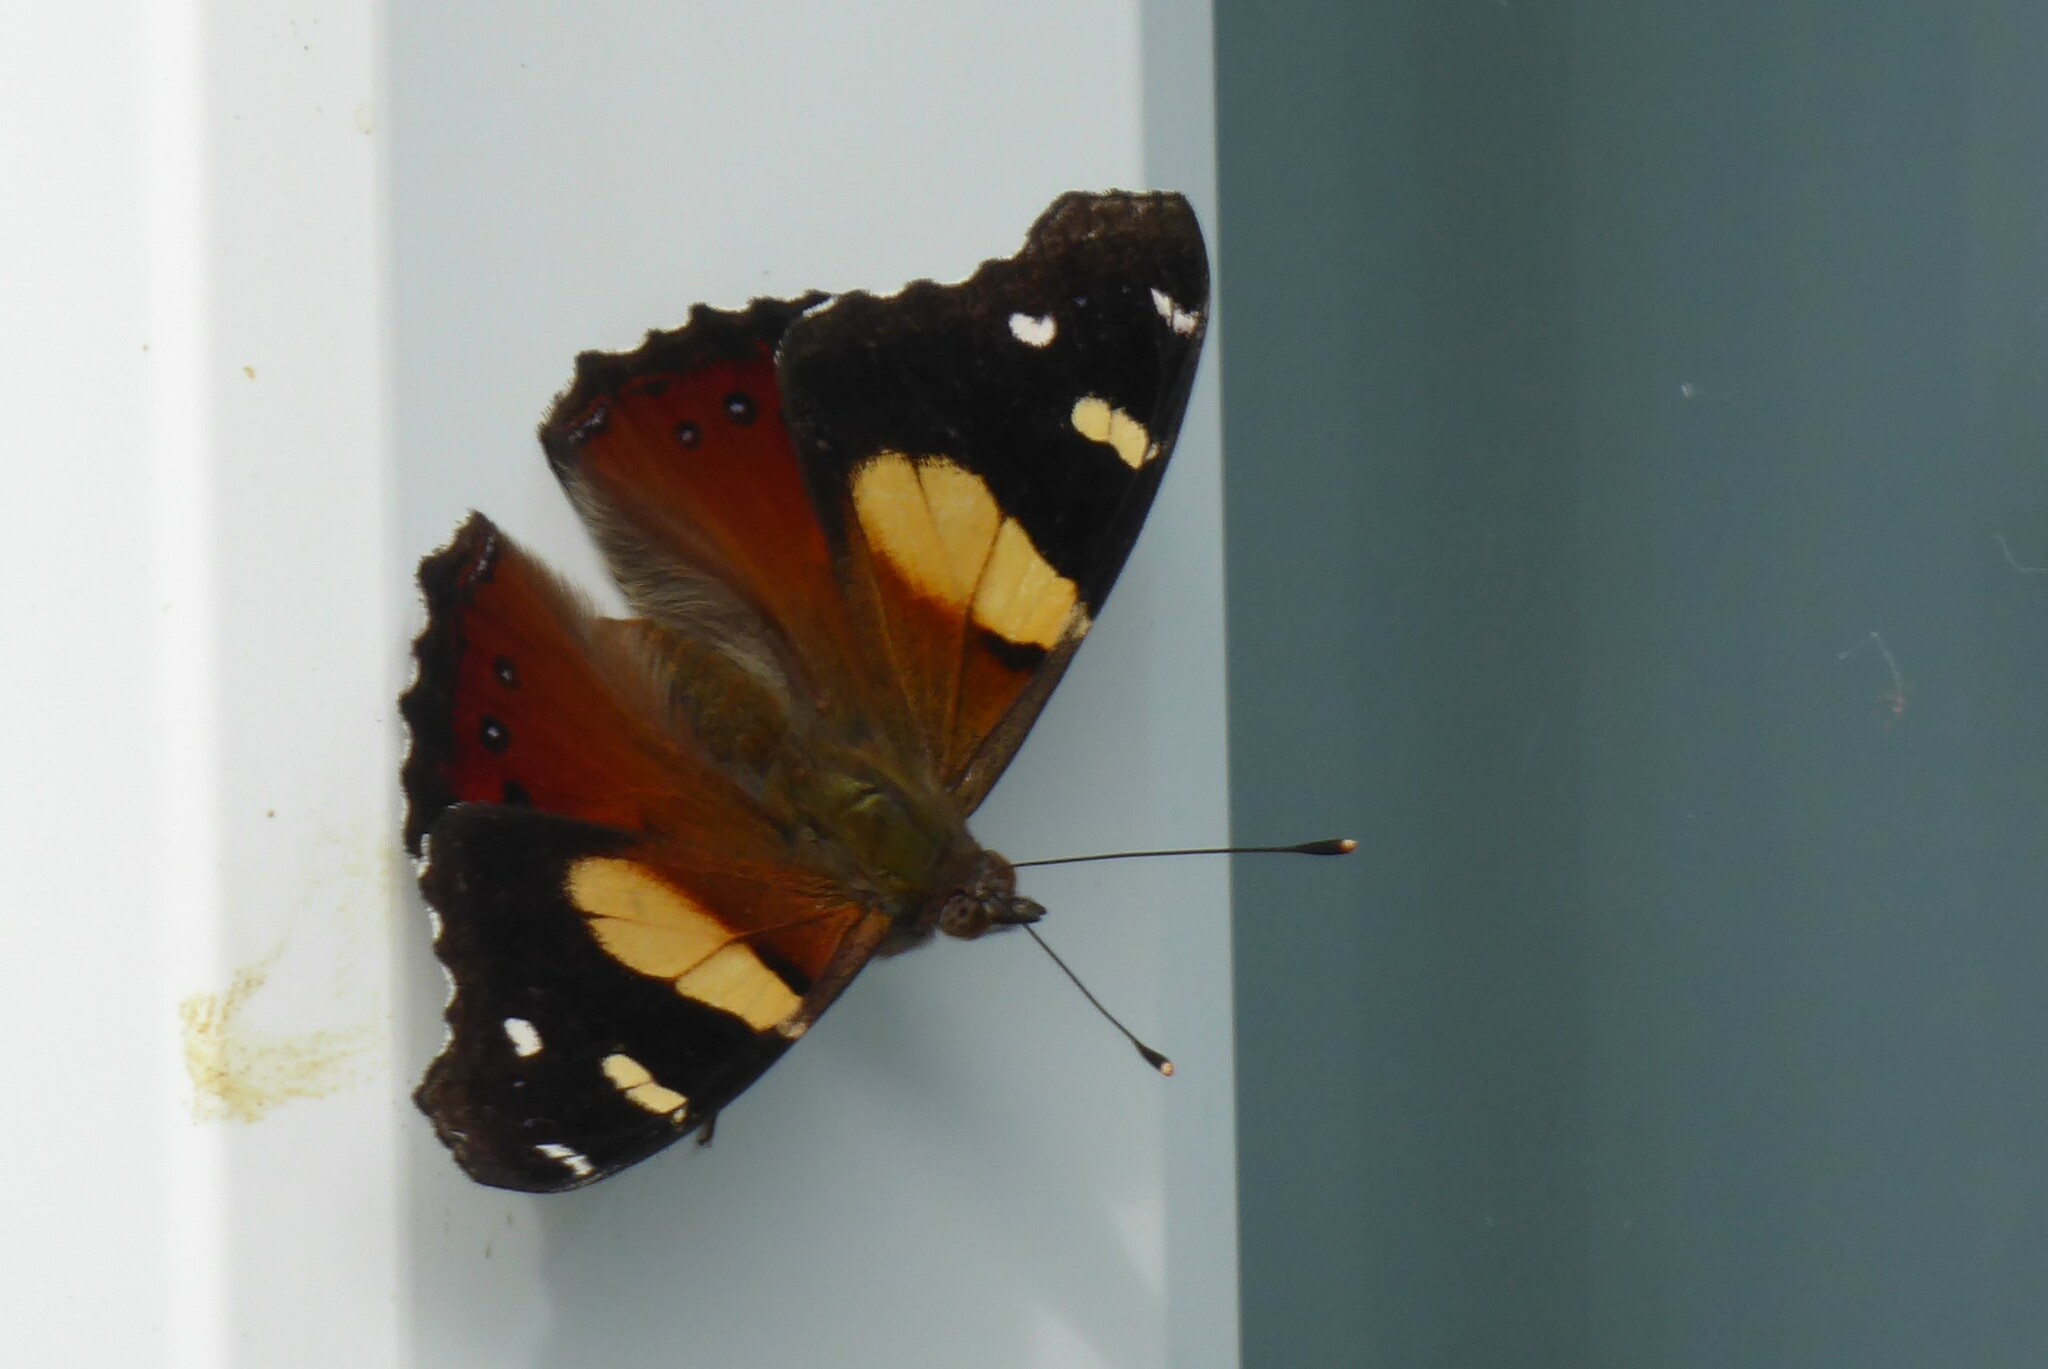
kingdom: Animalia
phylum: Arthropoda
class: Insecta
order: Lepidoptera
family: Nymphalidae
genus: Vanessa
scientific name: Vanessa itea
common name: Yellow admiral
